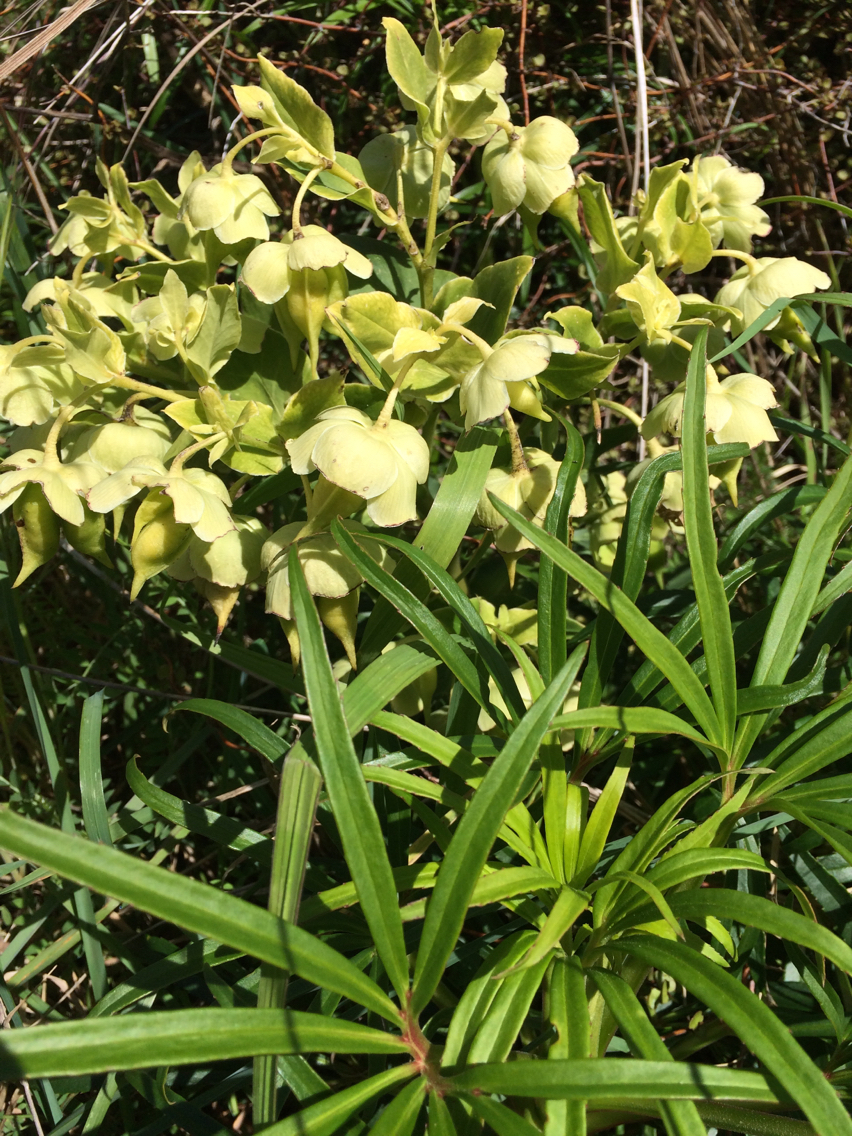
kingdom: Plantae
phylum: Tracheophyta
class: Magnoliopsida
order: Ranunculales
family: Ranunculaceae
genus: Helleborus
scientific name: Helleborus foetidus
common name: Stinking hellebore
